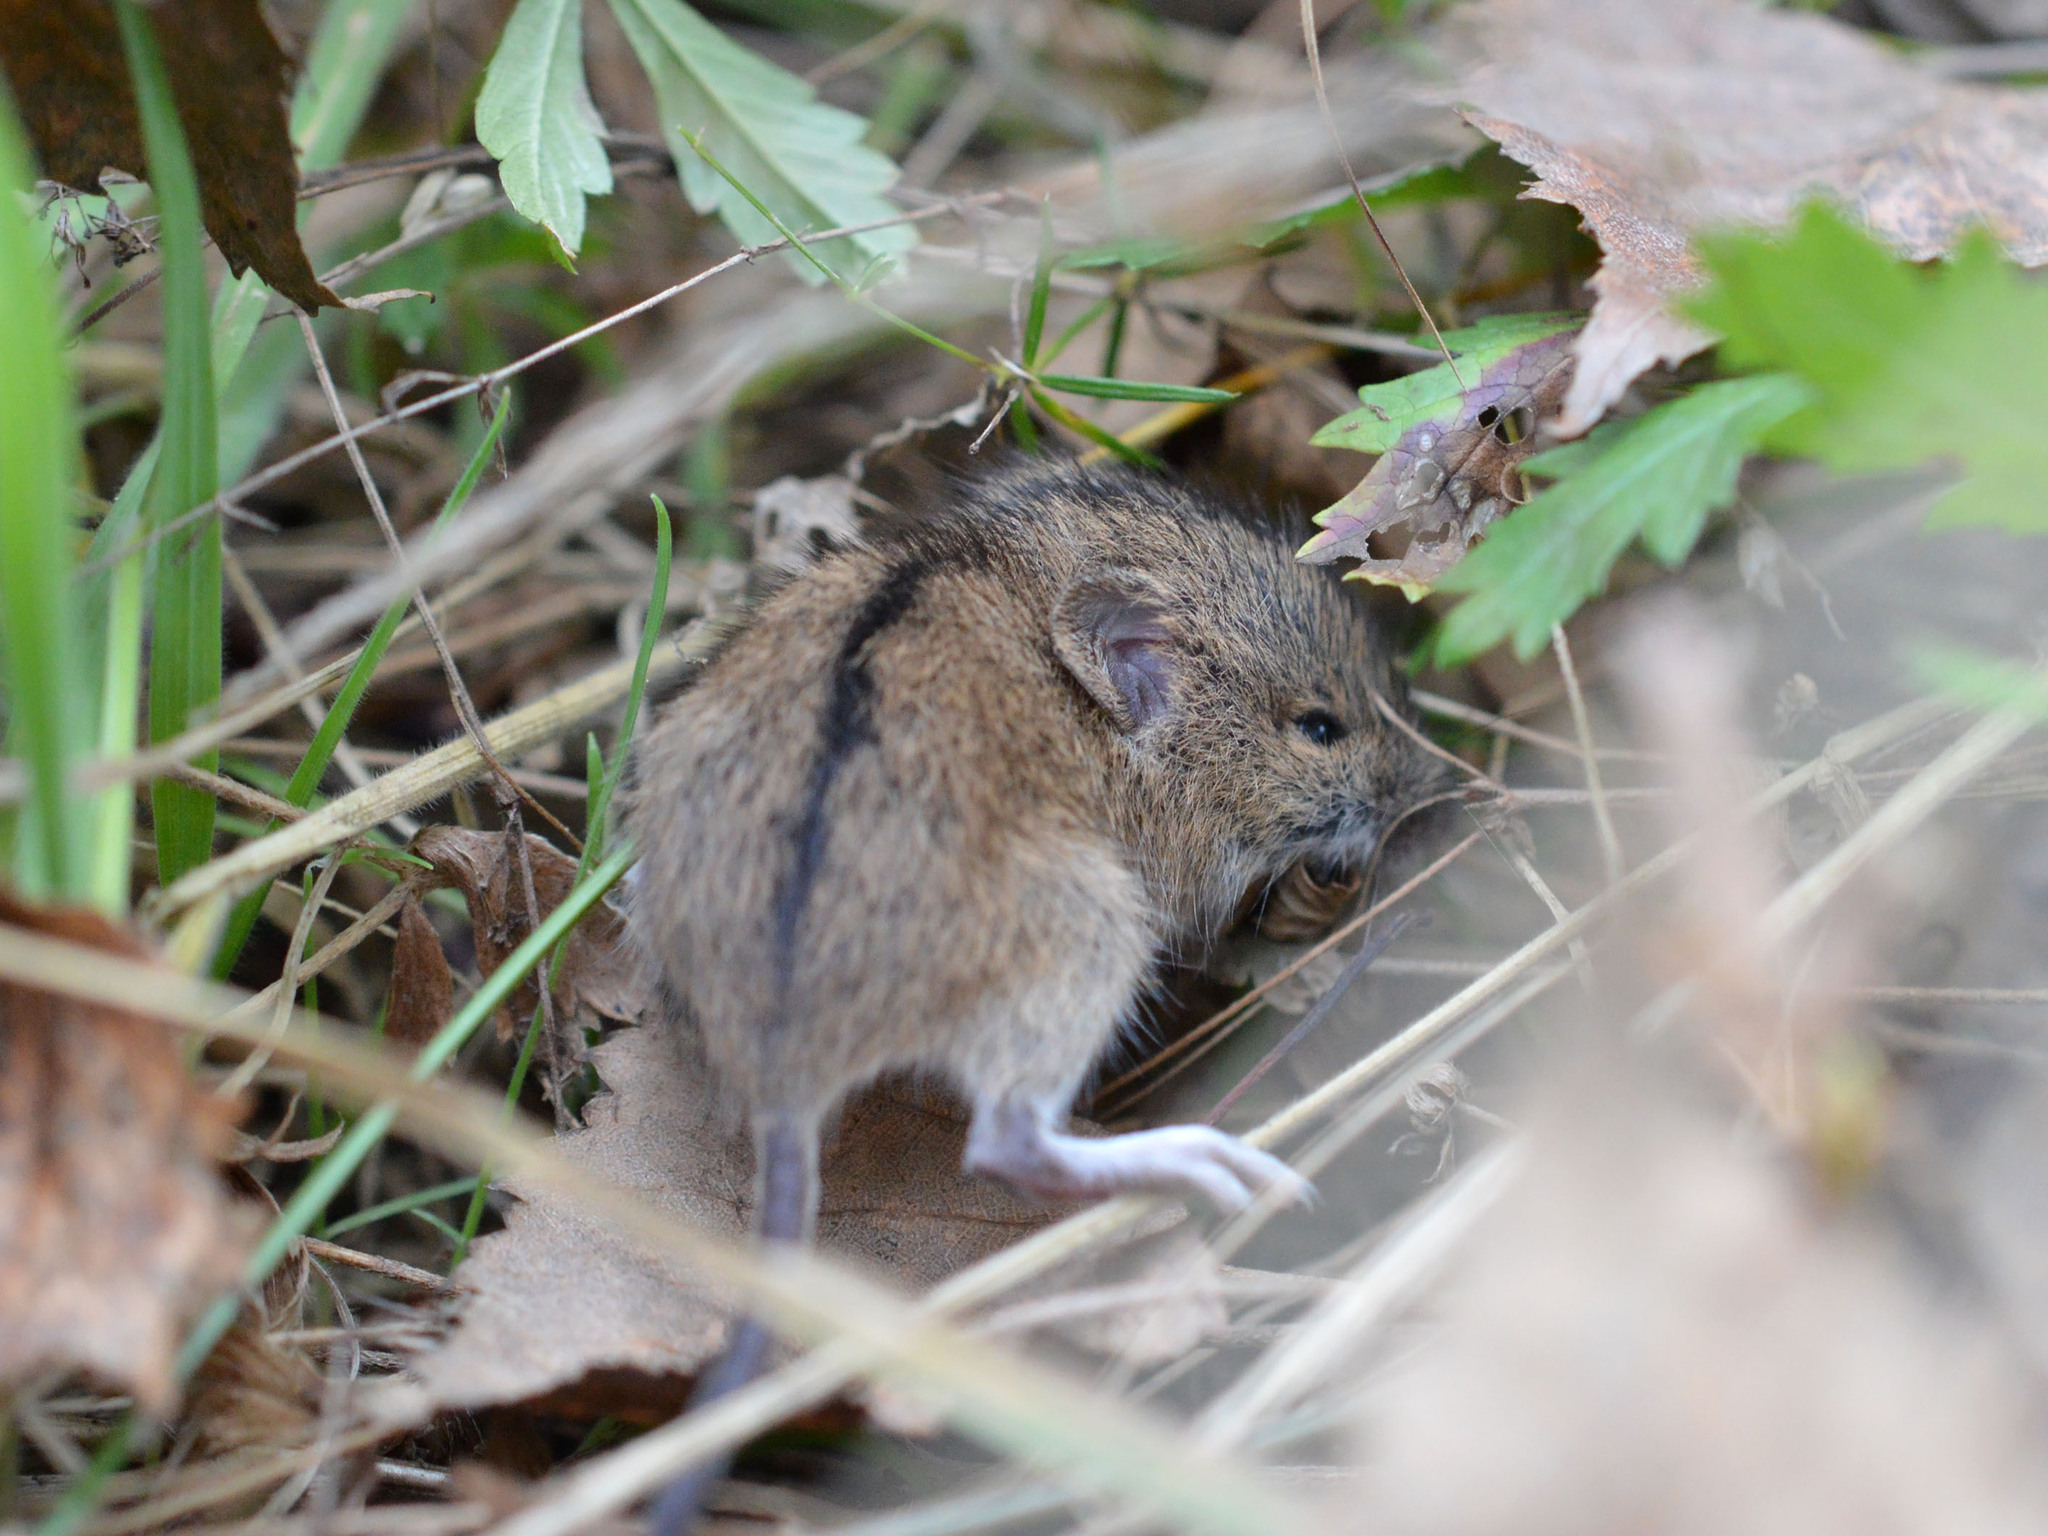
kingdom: Animalia
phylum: Chordata
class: Mammalia
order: Rodentia
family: Muridae
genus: Apodemus
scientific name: Apodemus agrarius
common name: Striped field mouse
